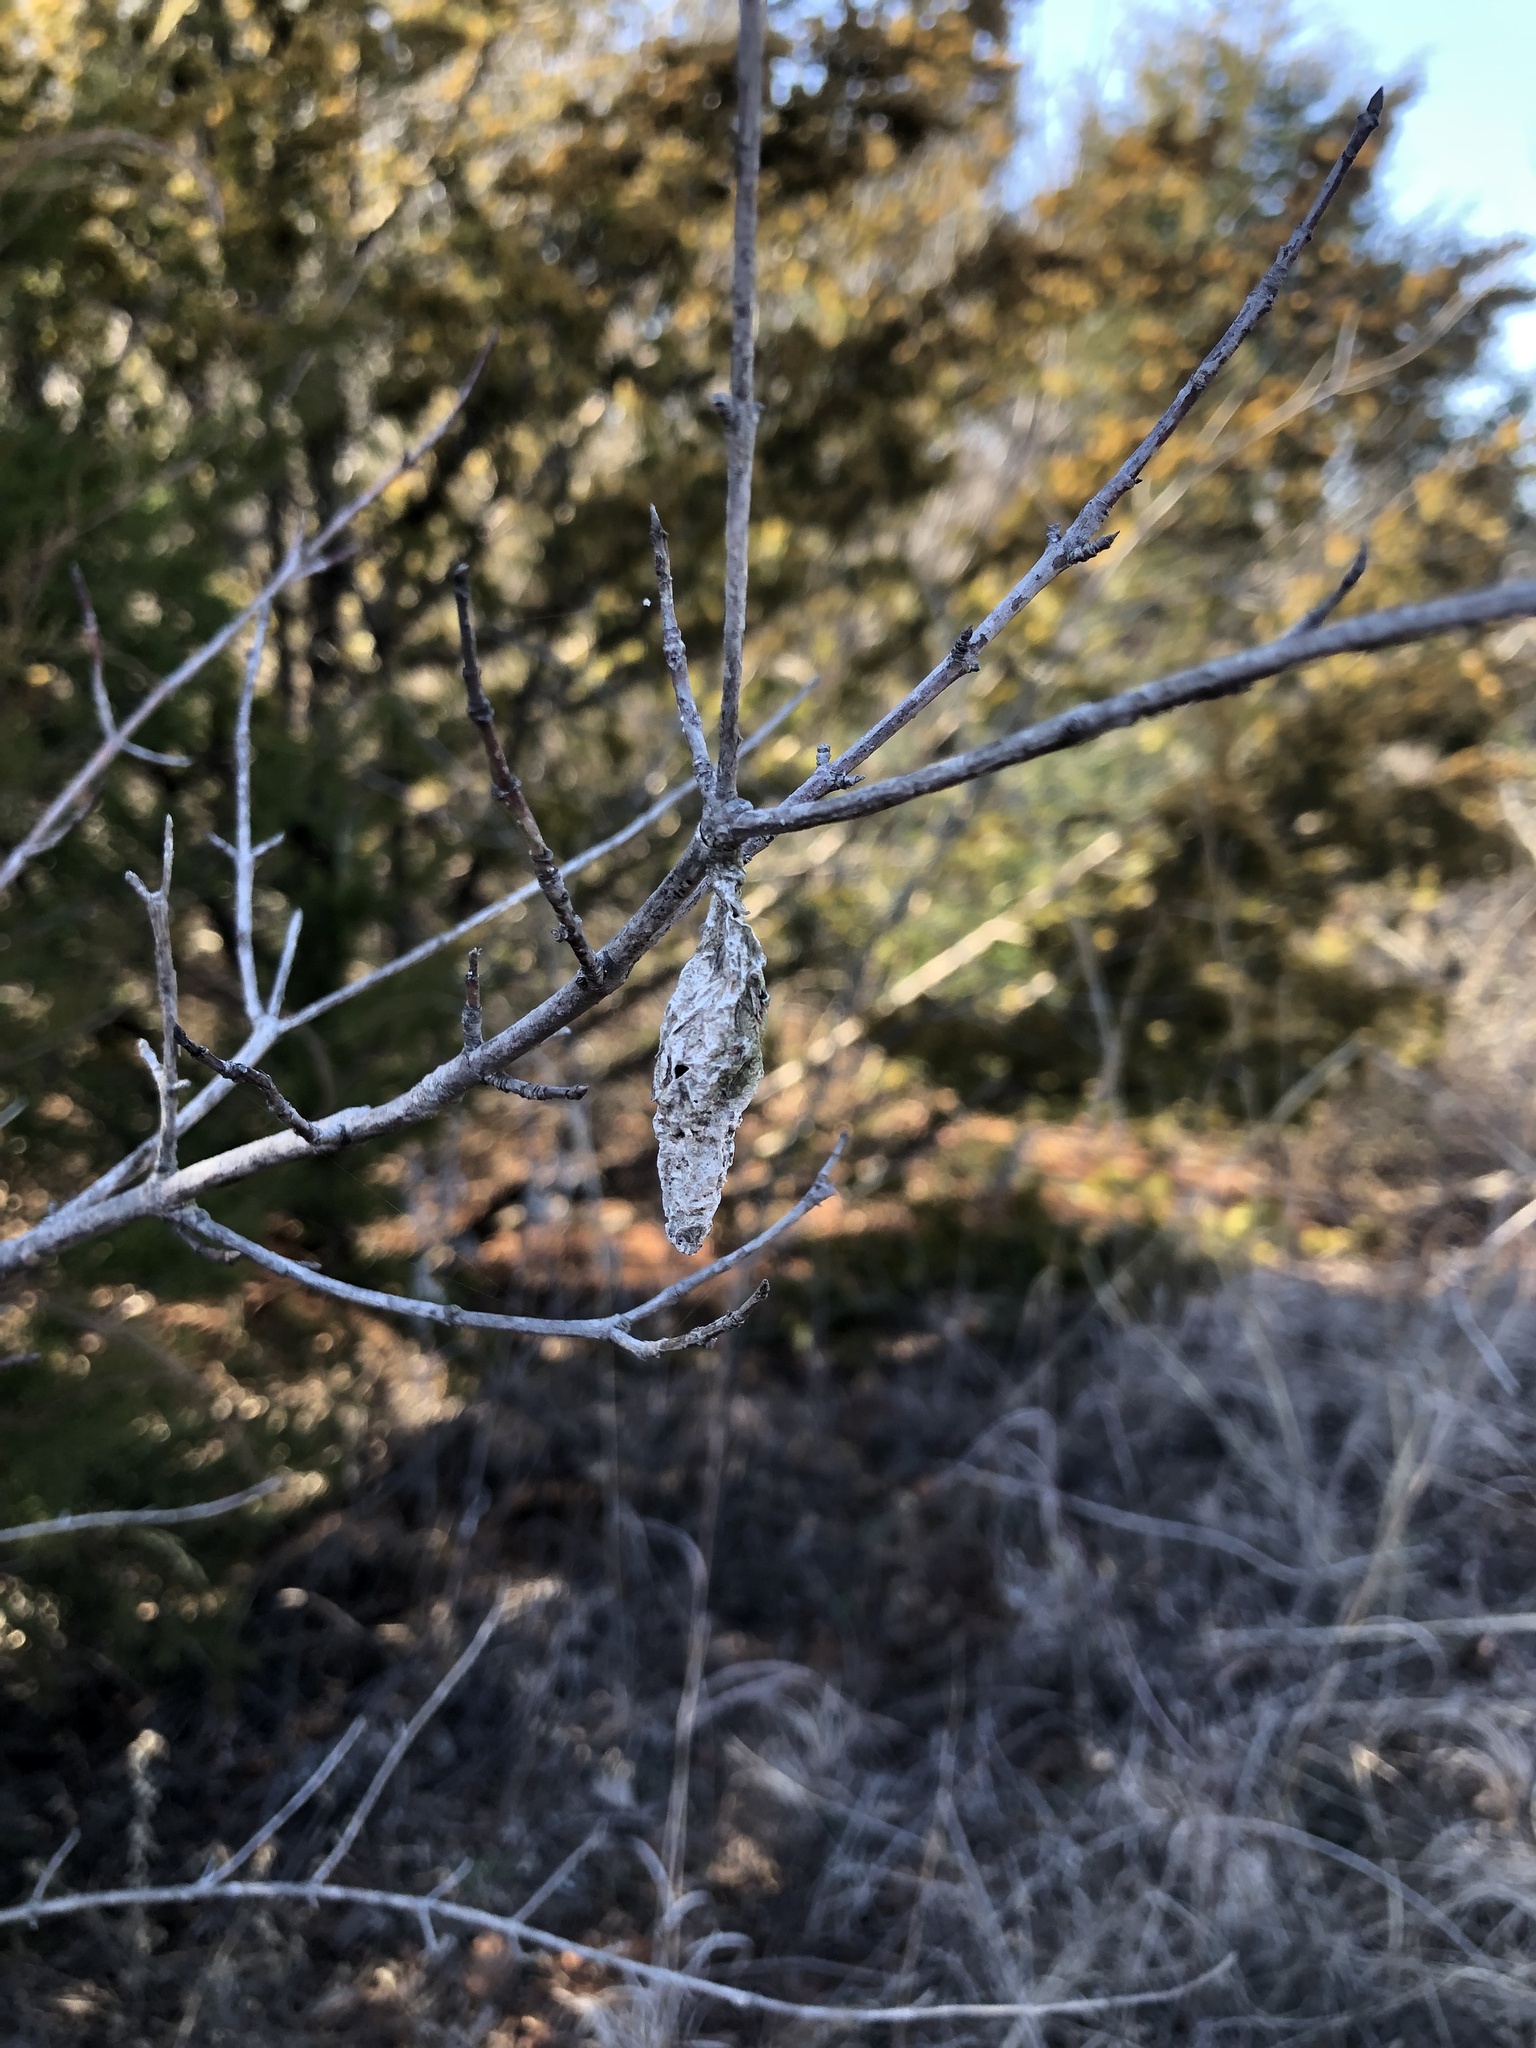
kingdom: Animalia
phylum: Arthropoda
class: Insecta
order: Lepidoptera
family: Psychidae
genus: Thyridopteryx
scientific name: Thyridopteryx ephemeraeformis
